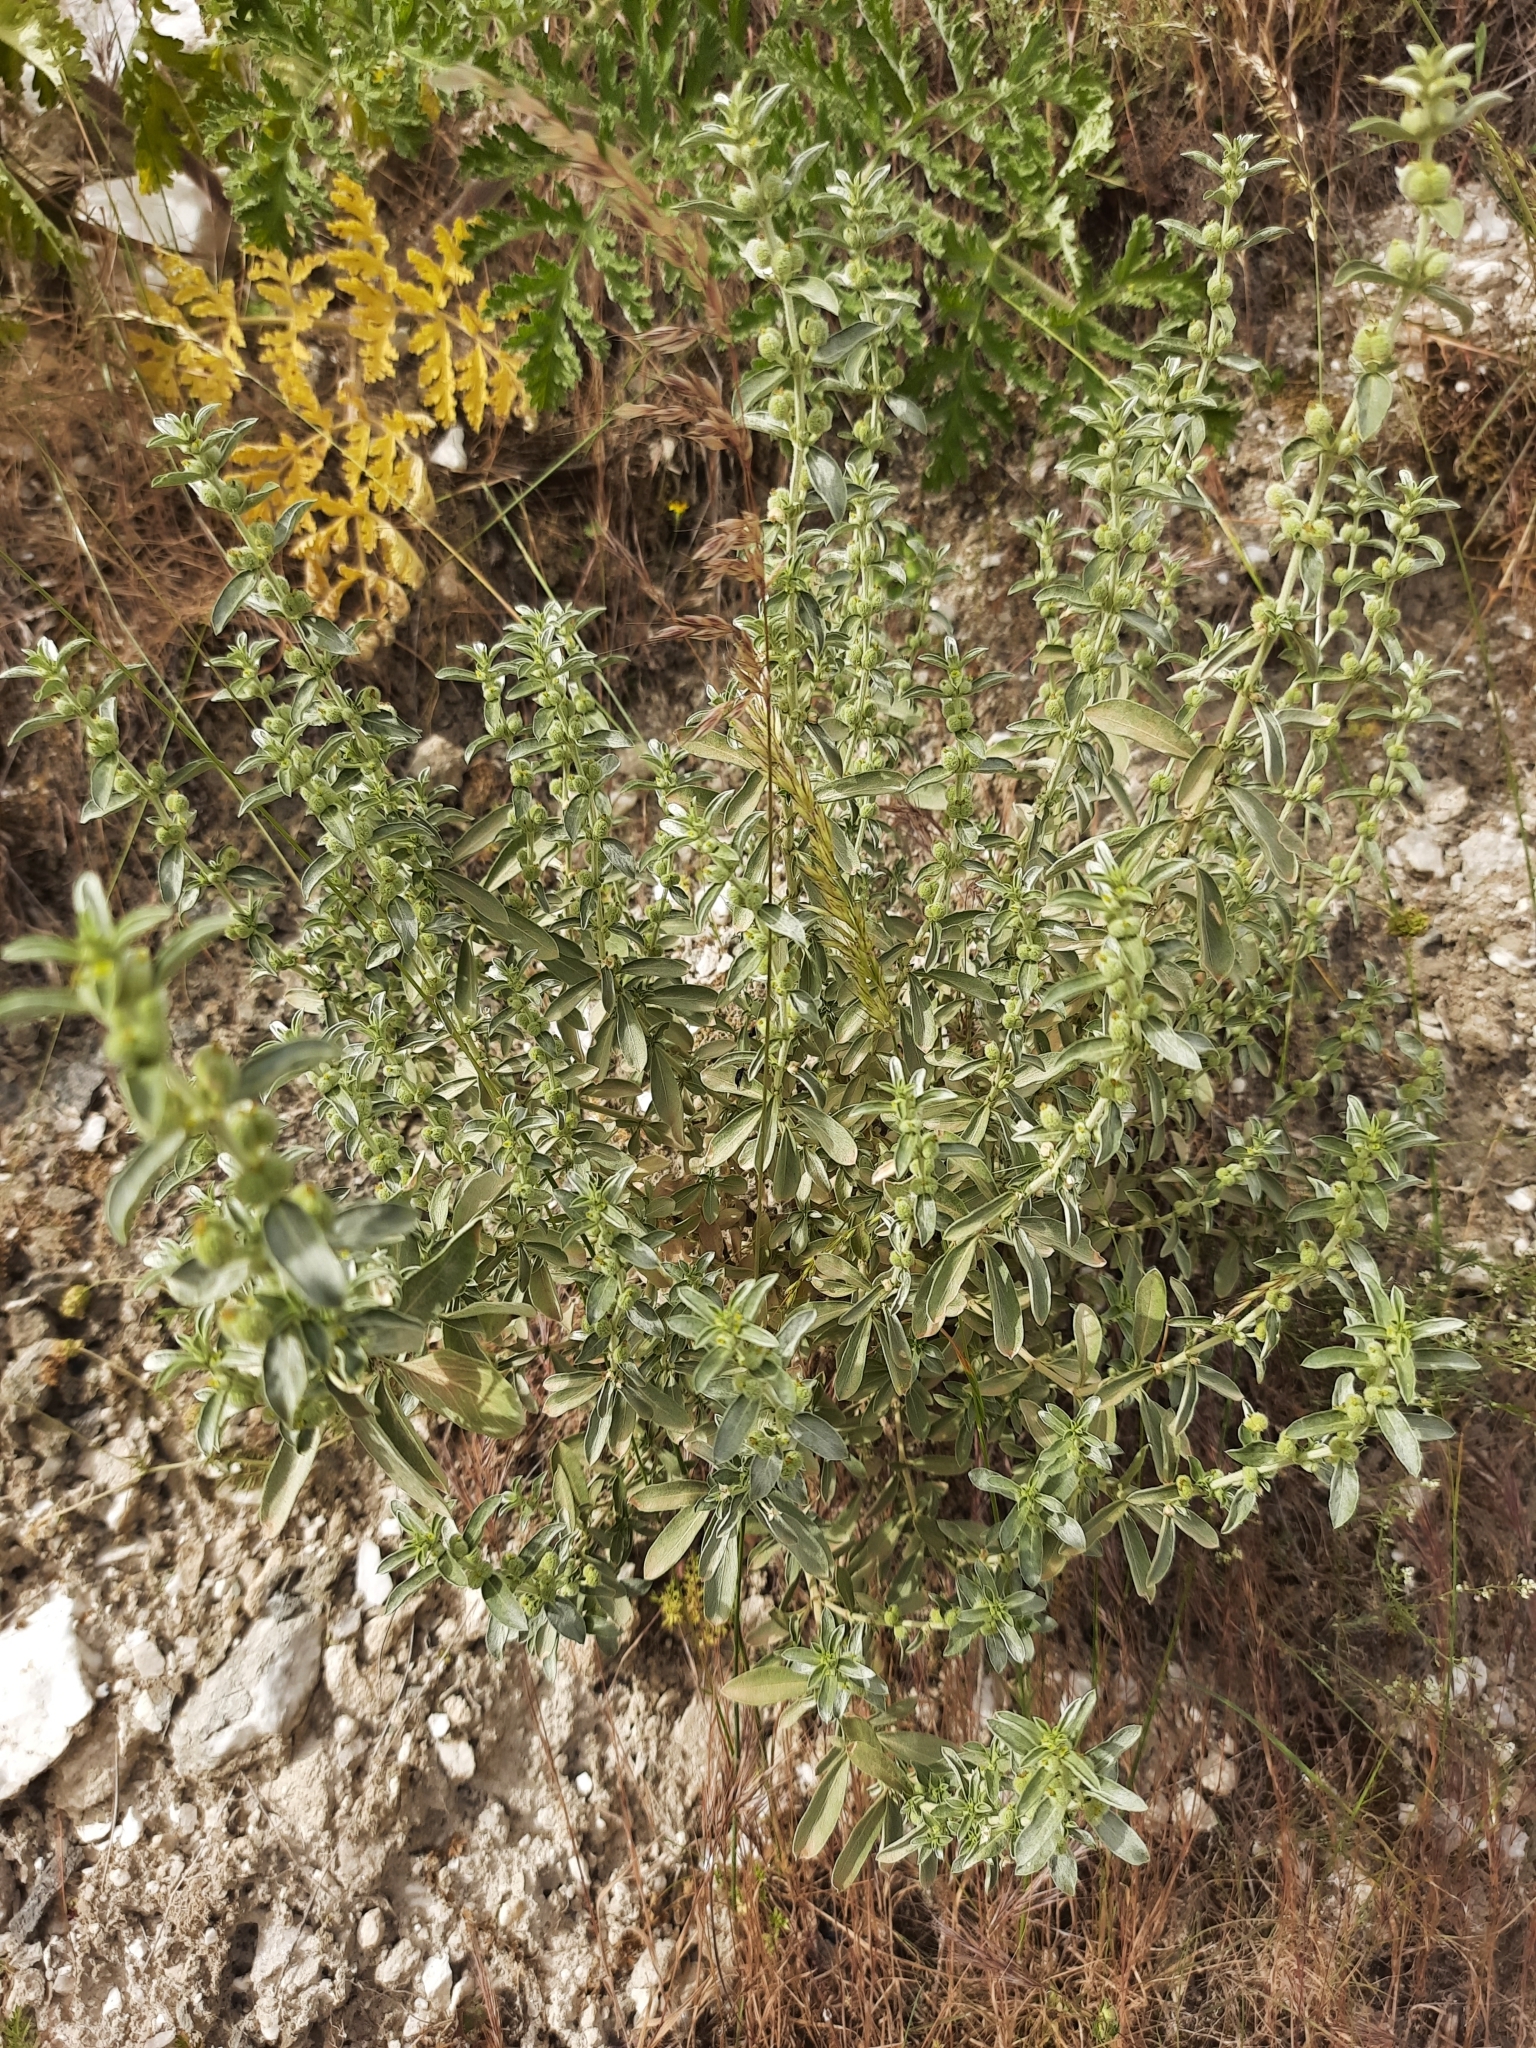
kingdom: Plantae
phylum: Tracheophyta
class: Magnoliopsida
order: Malpighiales
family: Euphorbiaceae
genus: Mercurialis
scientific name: Mercurialis tomentosa
